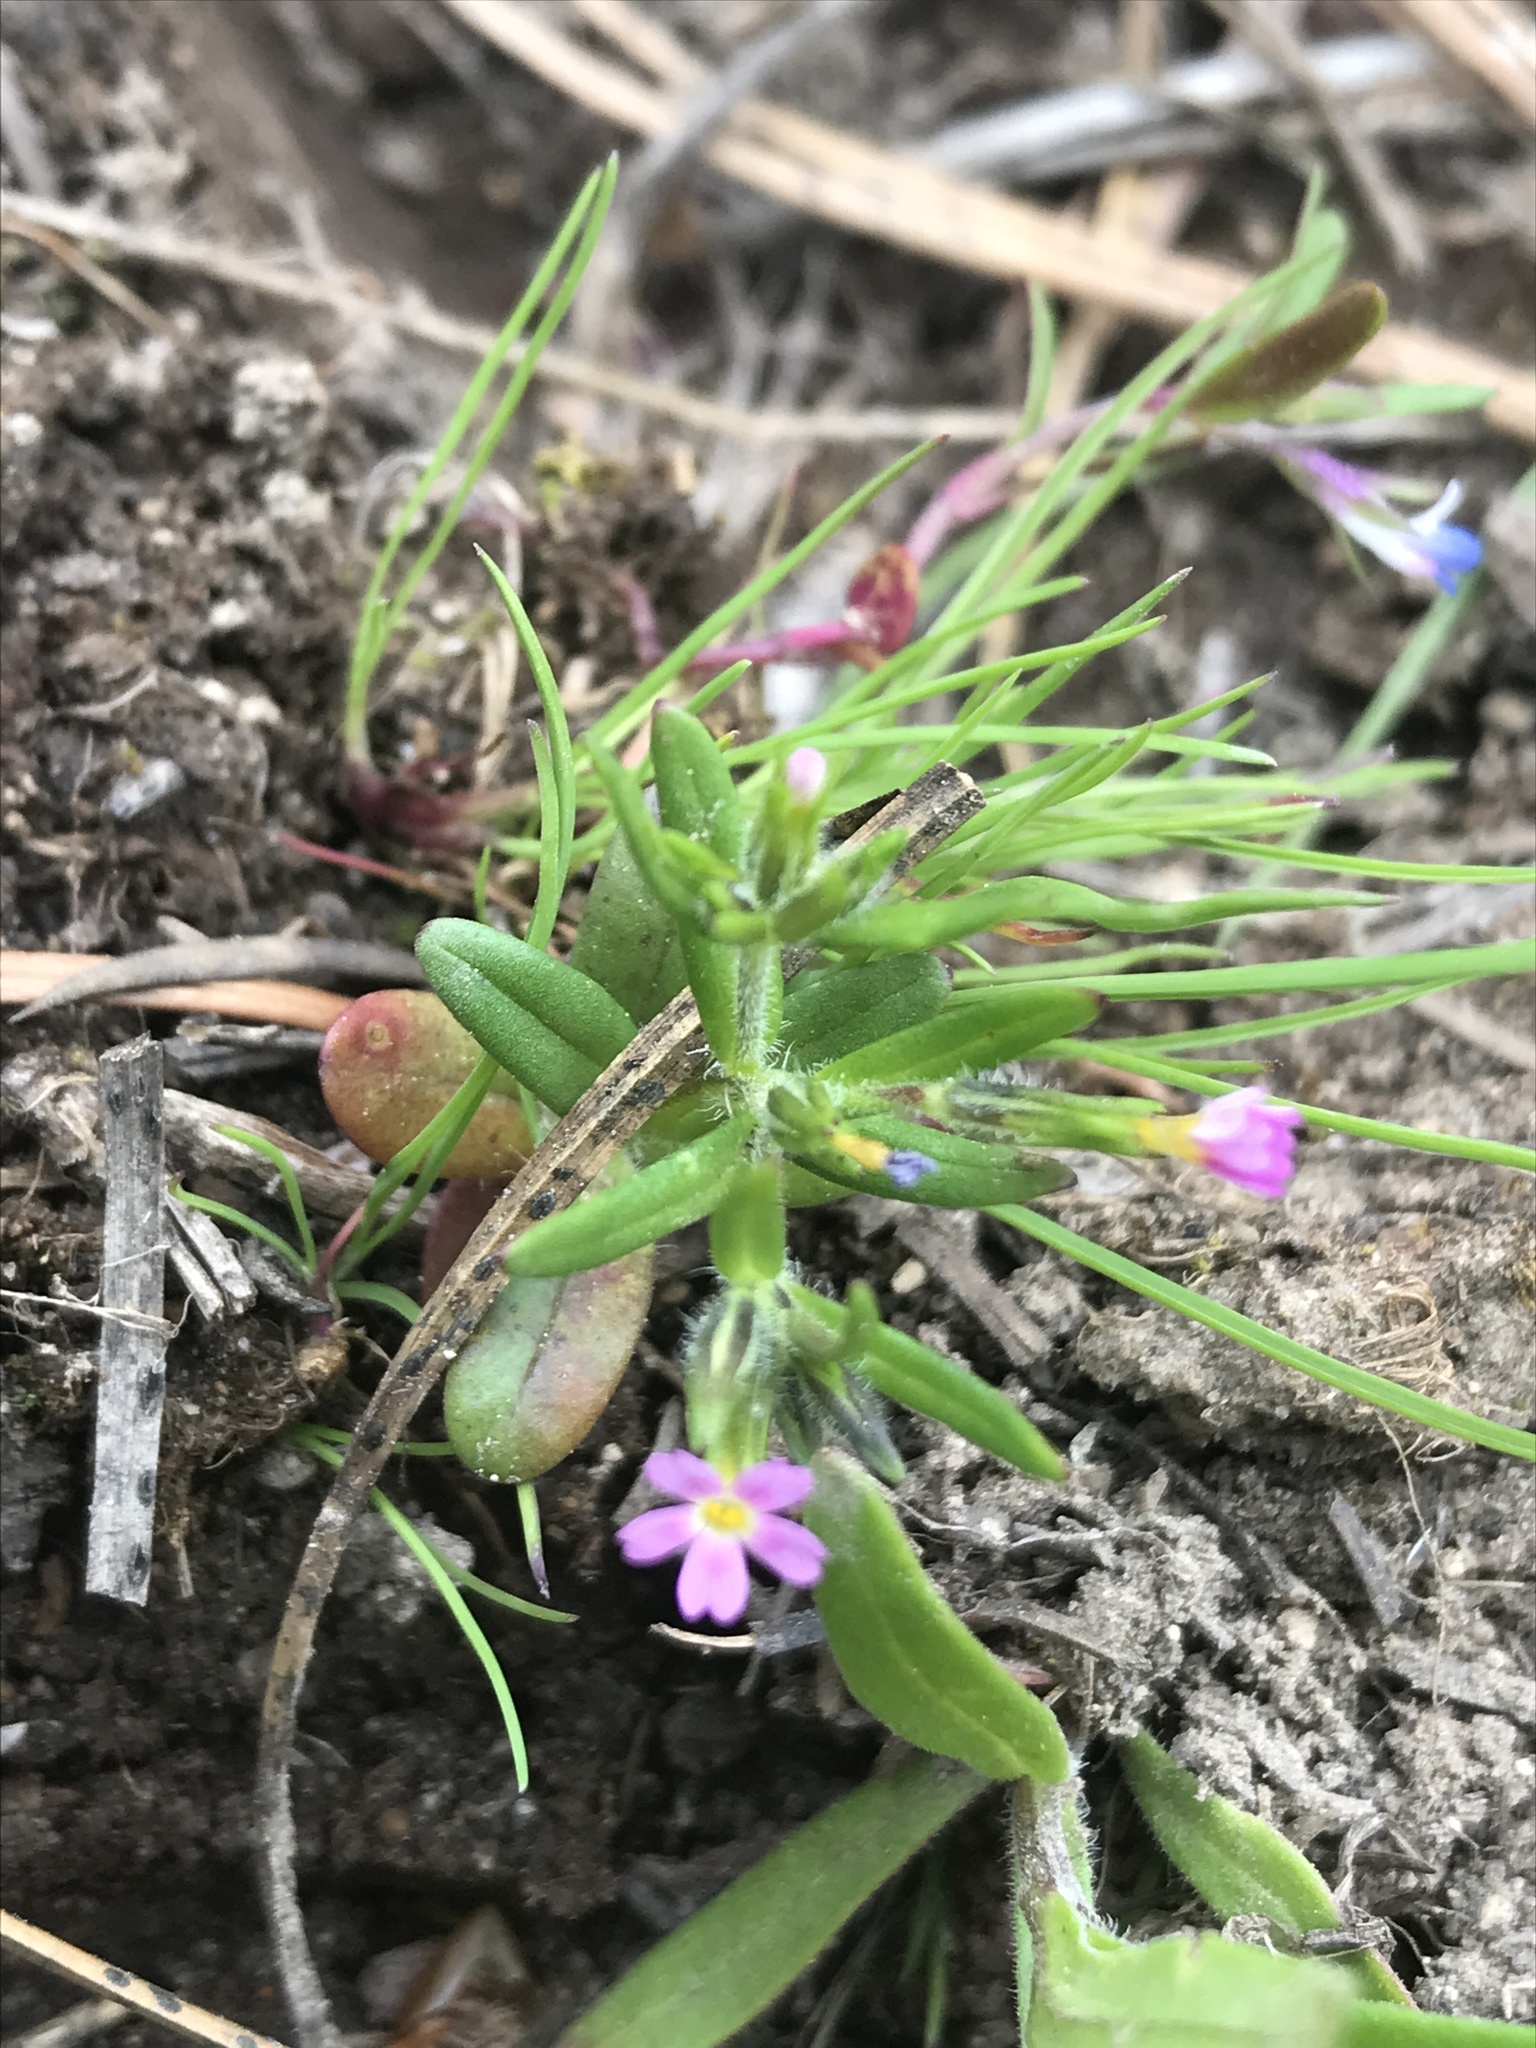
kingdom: Plantae
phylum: Tracheophyta
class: Magnoliopsida
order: Ericales
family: Polemoniaceae
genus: Phlox
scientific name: Phlox gracilis
